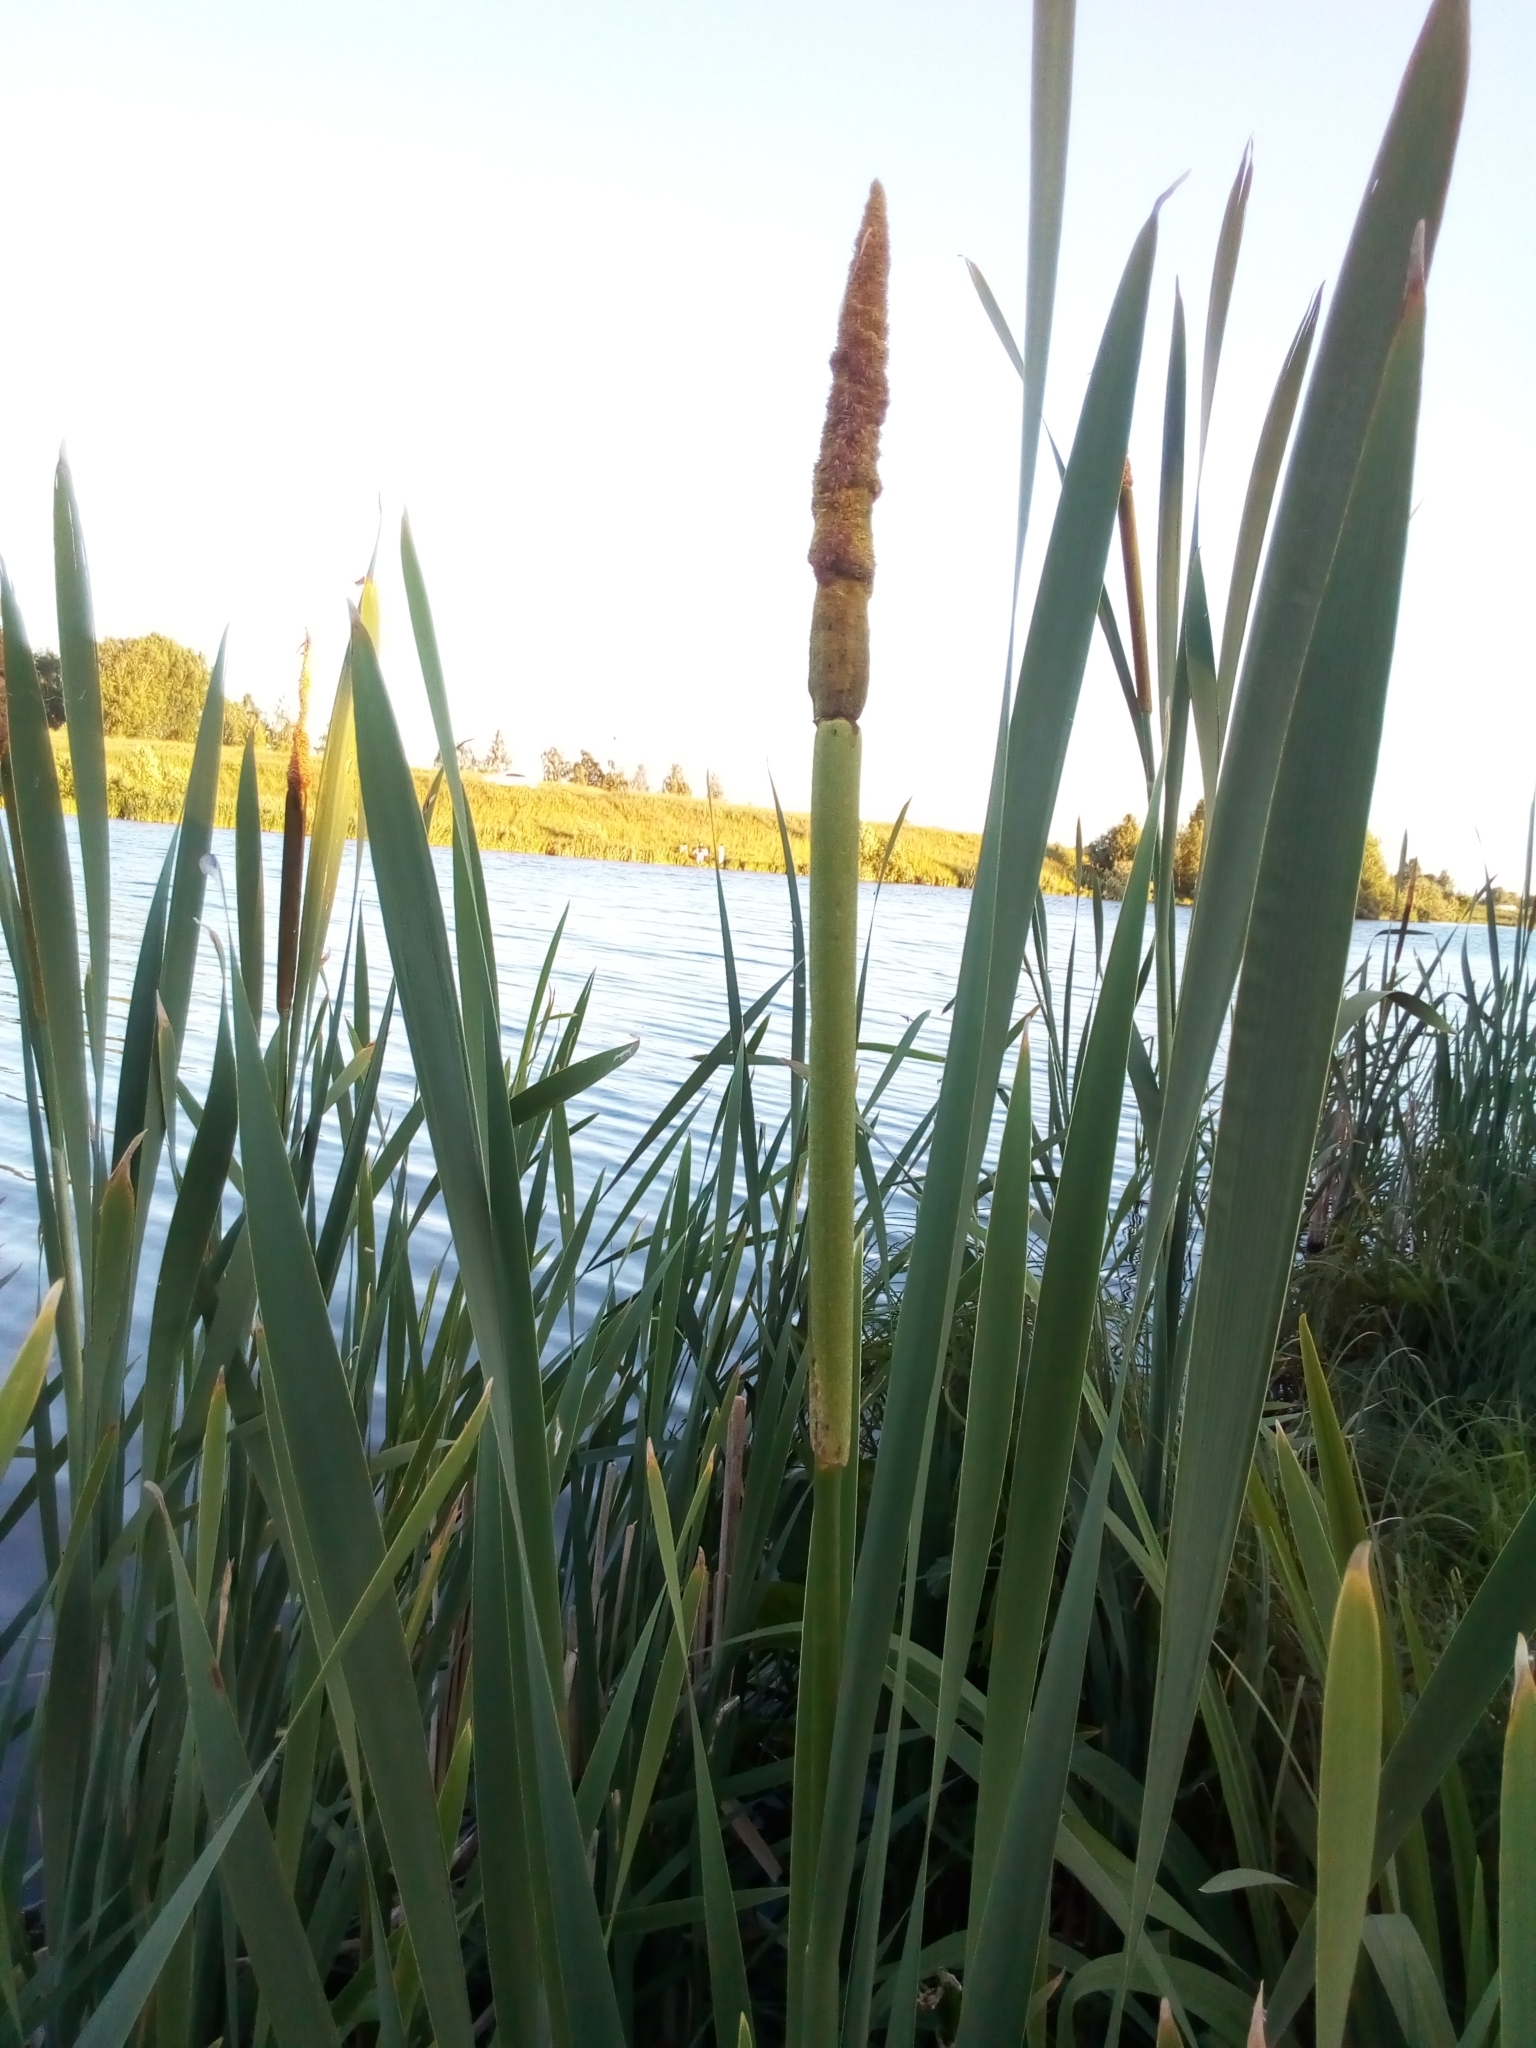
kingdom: Plantae
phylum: Tracheophyta
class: Liliopsida
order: Poales
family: Typhaceae
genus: Typha
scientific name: Typha latifolia
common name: Broadleaf cattail
